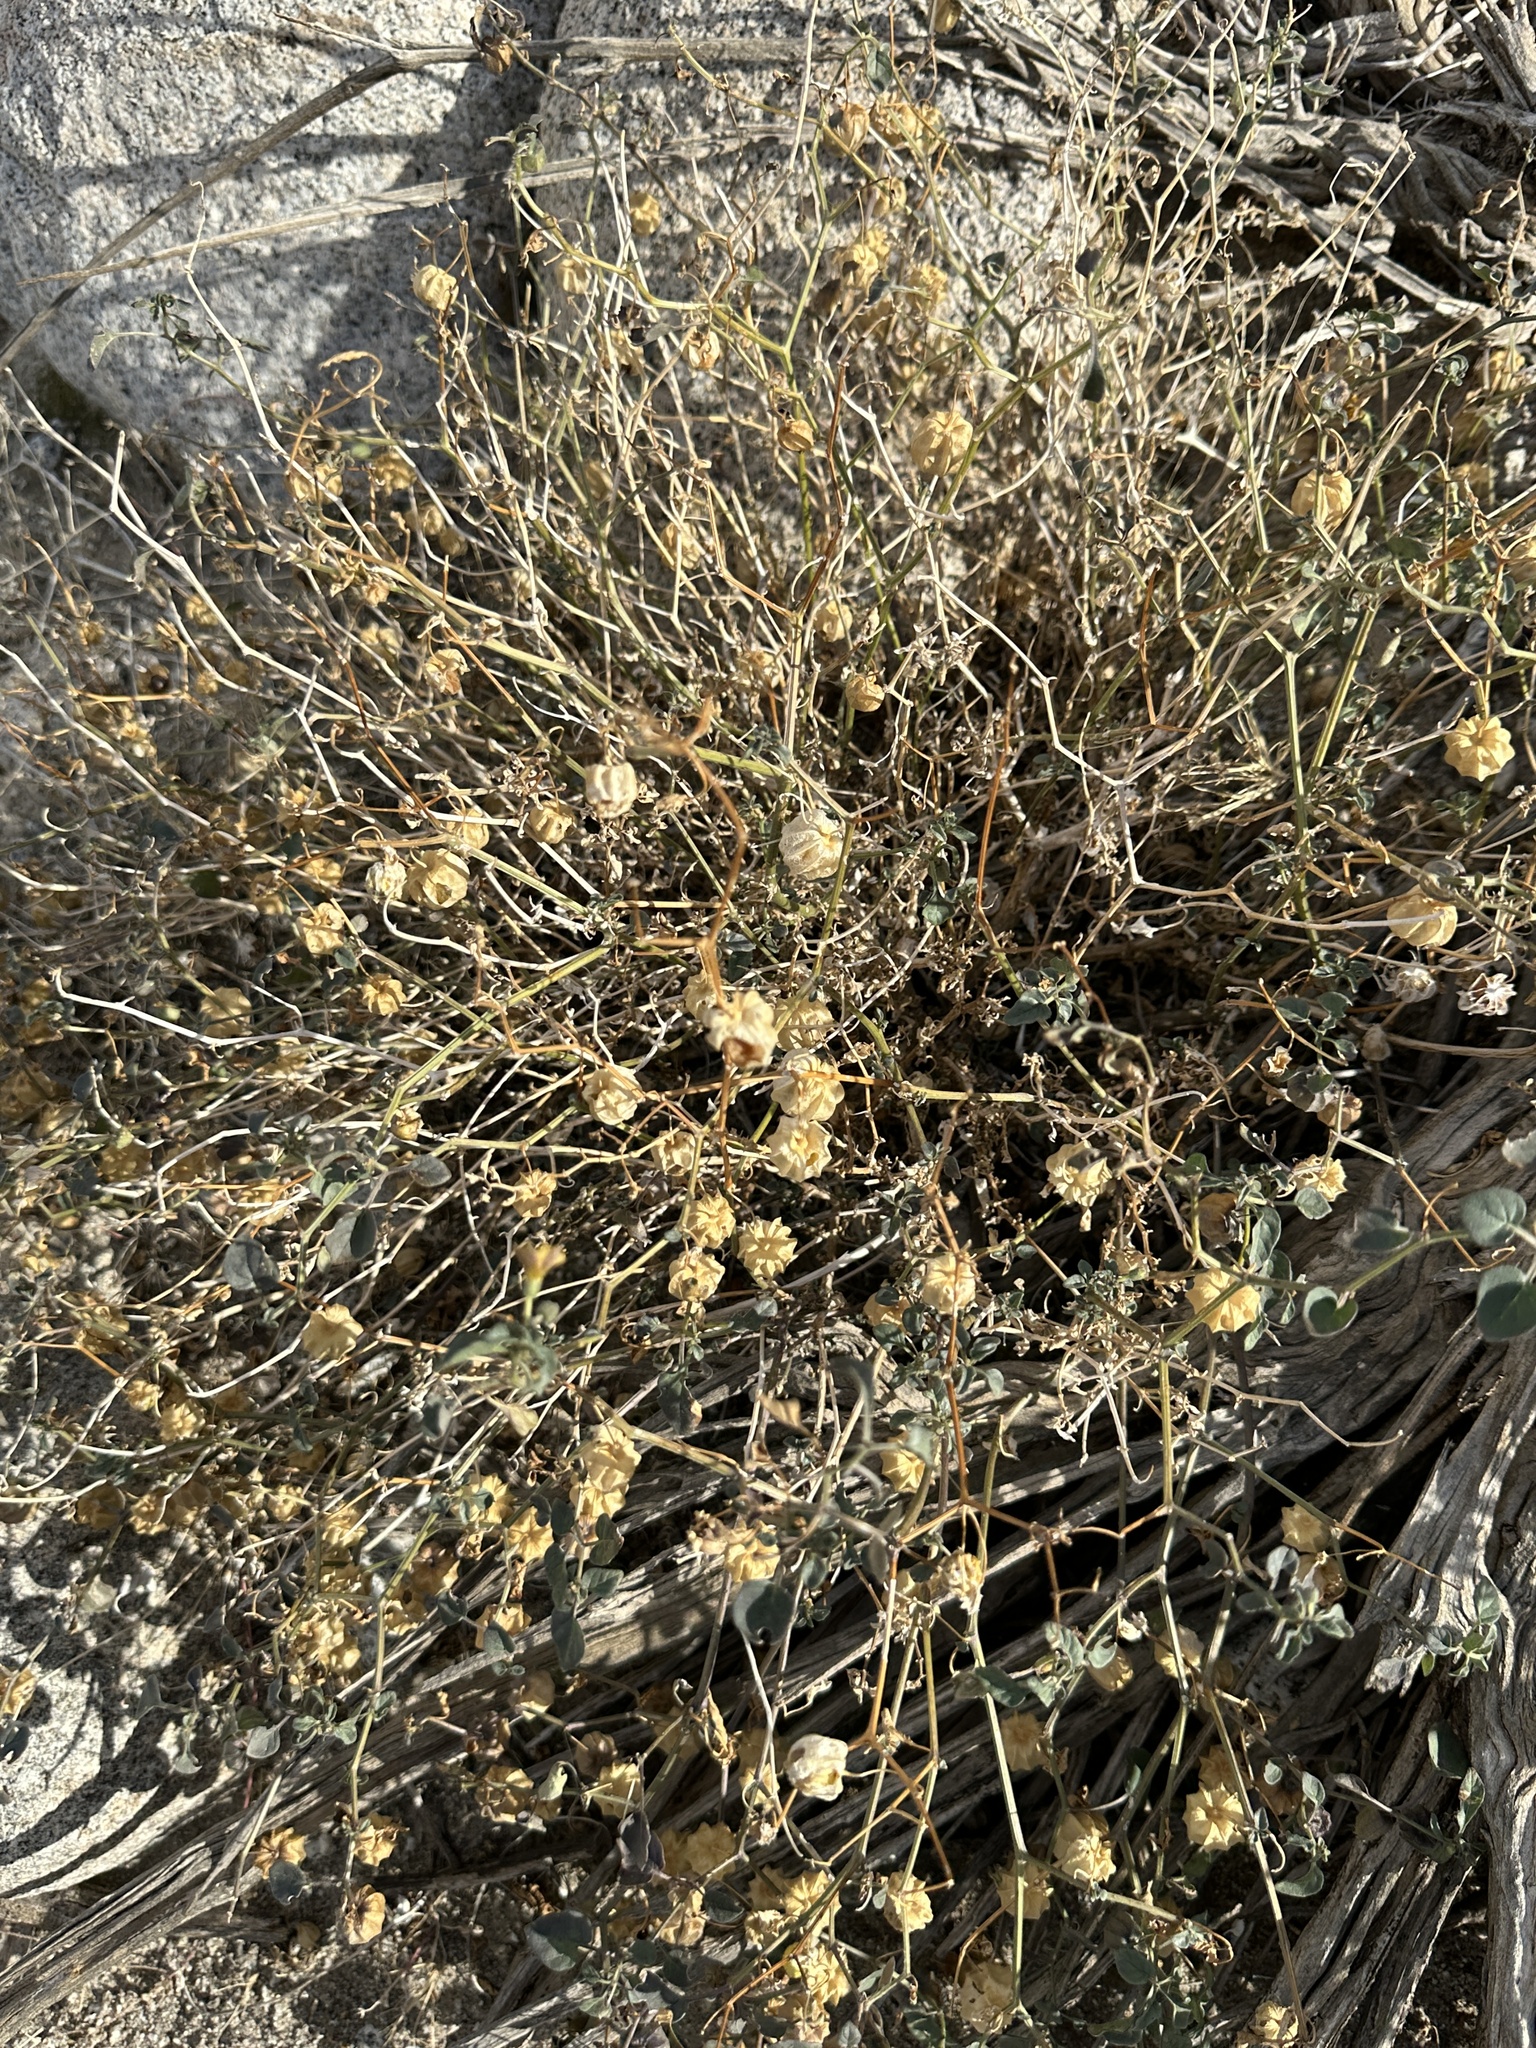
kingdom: Plantae
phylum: Tracheophyta
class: Magnoliopsida
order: Solanales
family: Solanaceae
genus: Physalis
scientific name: Physalis crassifolia
